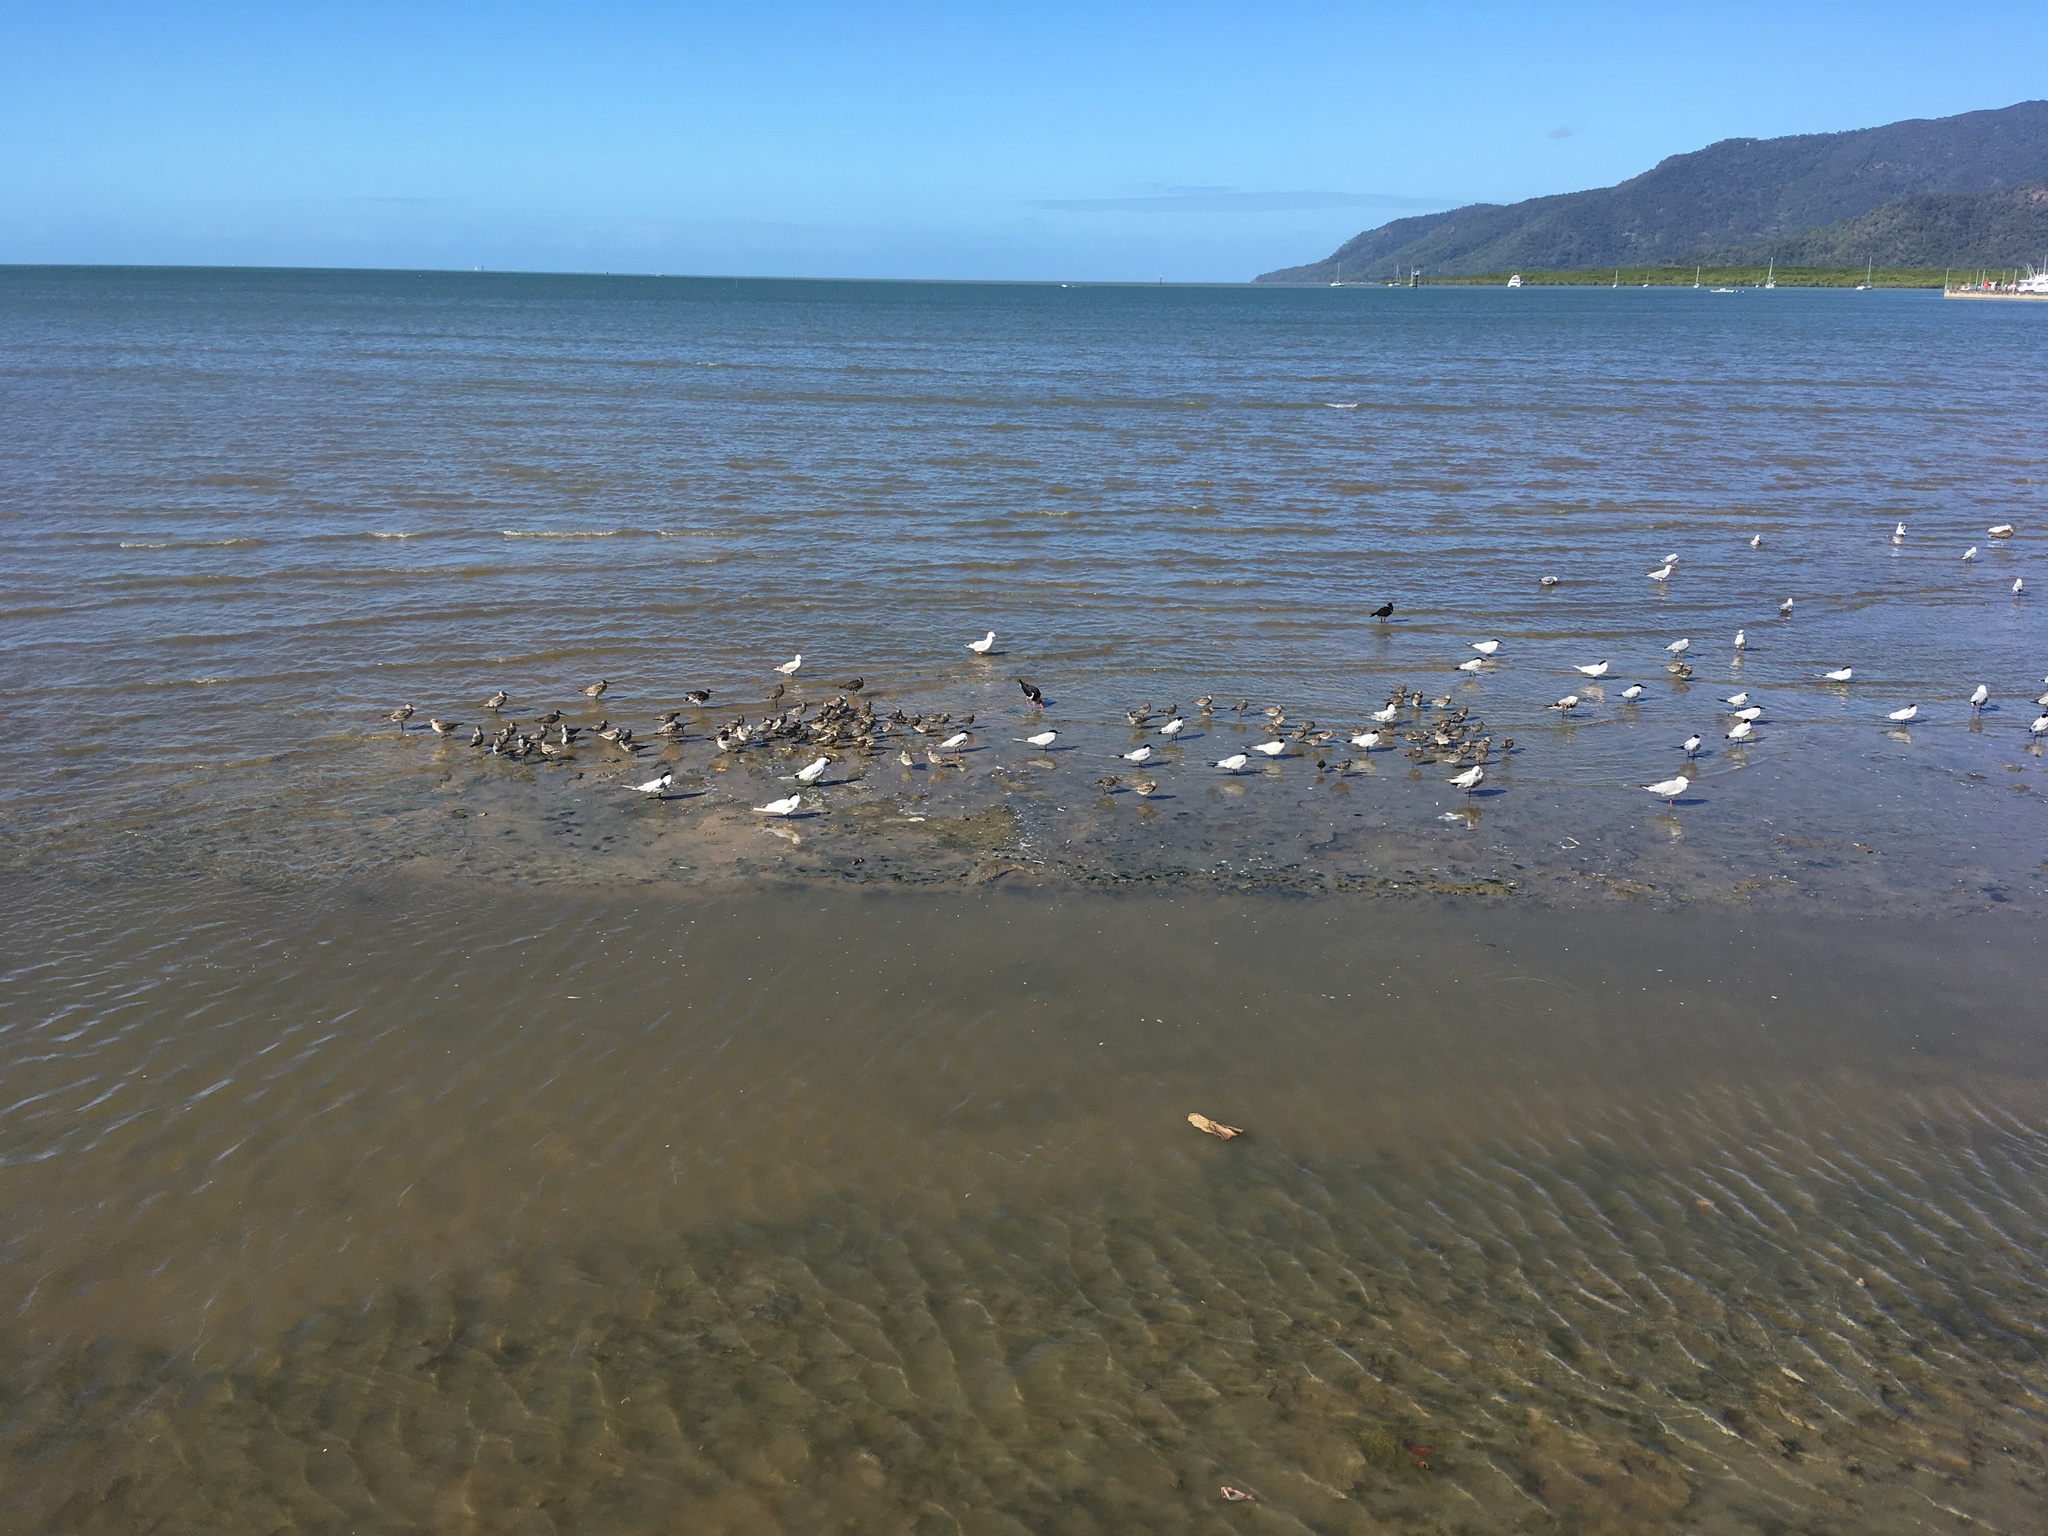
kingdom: Animalia
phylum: Chordata
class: Aves
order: Charadriiformes
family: Haematopodidae
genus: Haematopus
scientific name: Haematopus longirostris
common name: Pied oystercatcher
